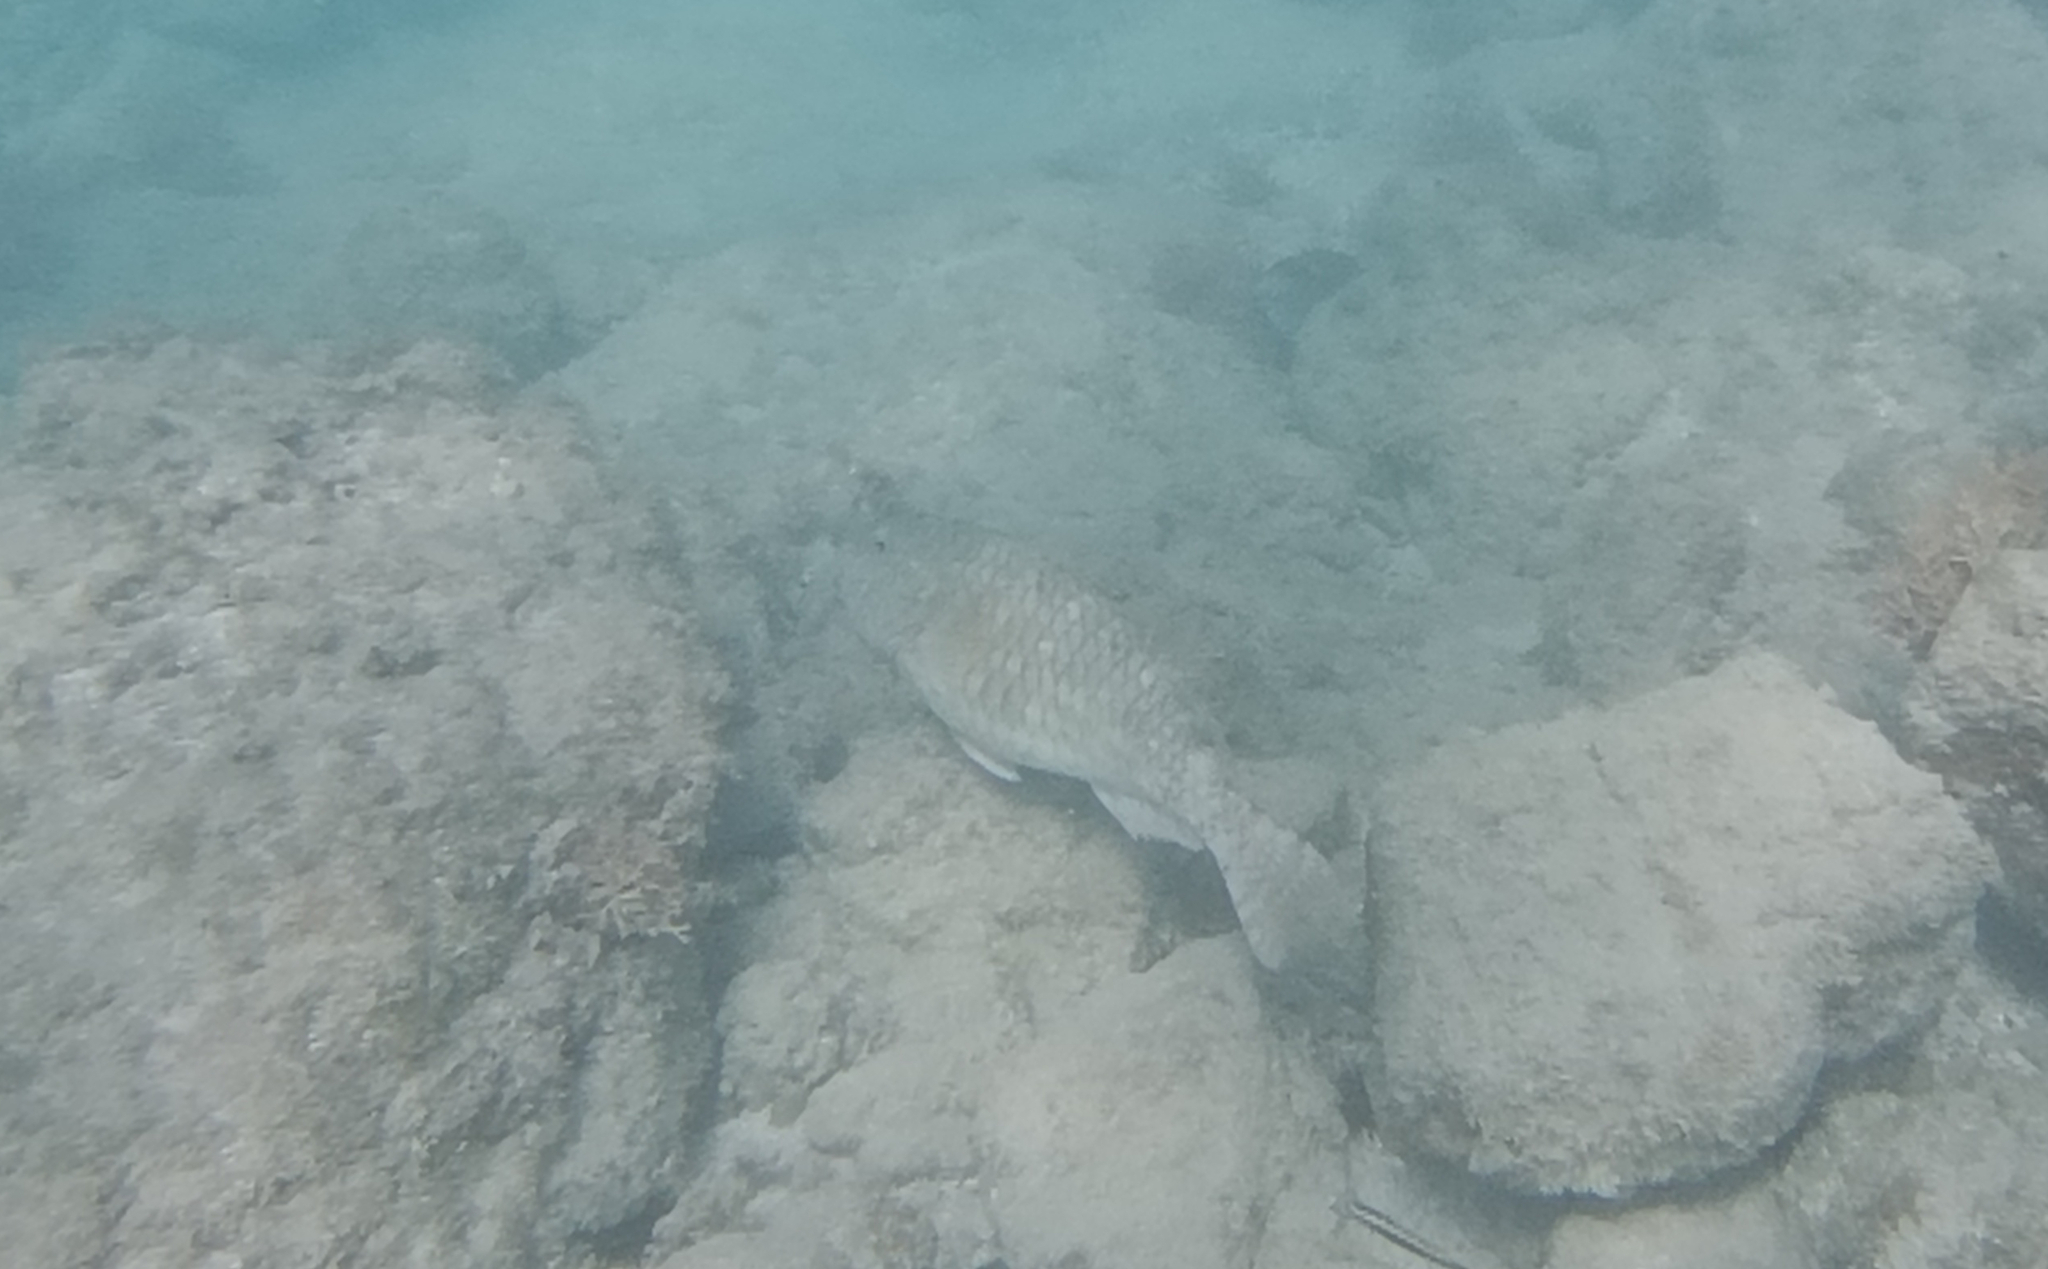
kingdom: Animalia
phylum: Chordata
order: Perciformes
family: Scaridae
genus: Sparisoma
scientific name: Sparisoma rubripinne
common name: Redfin parrotfish
